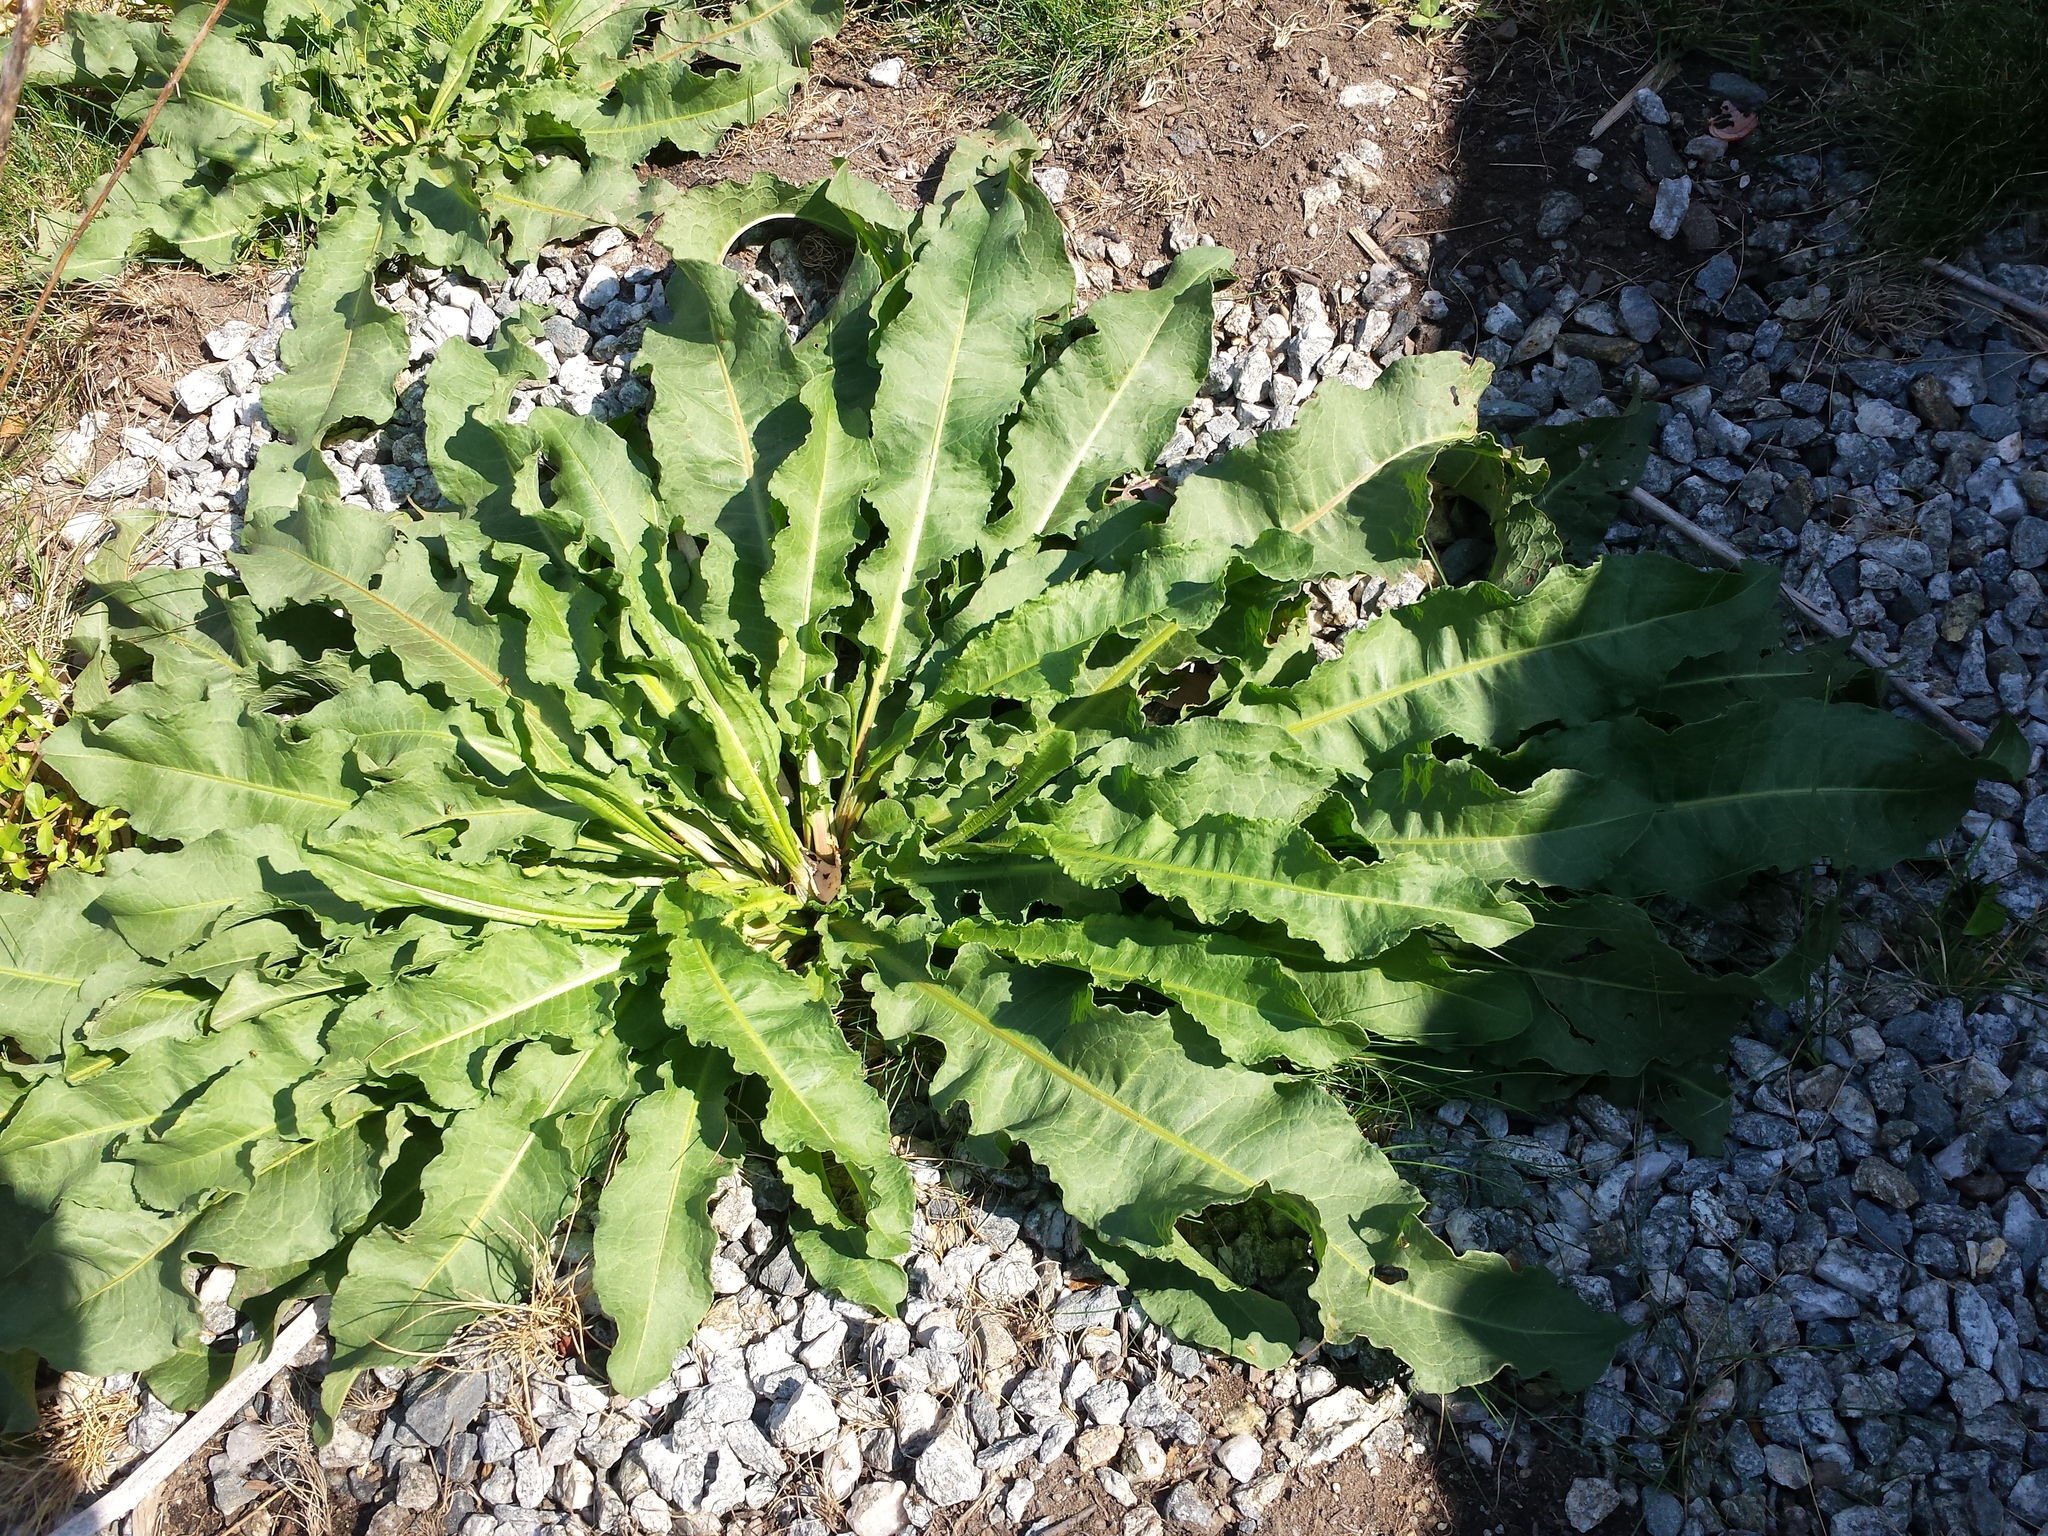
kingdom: Plantae
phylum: Tracheophyta
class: Magnoliopsida
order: Caryophyllales
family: Polygonaceae
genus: Rumex
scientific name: Rumex crispus
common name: Curled dock
